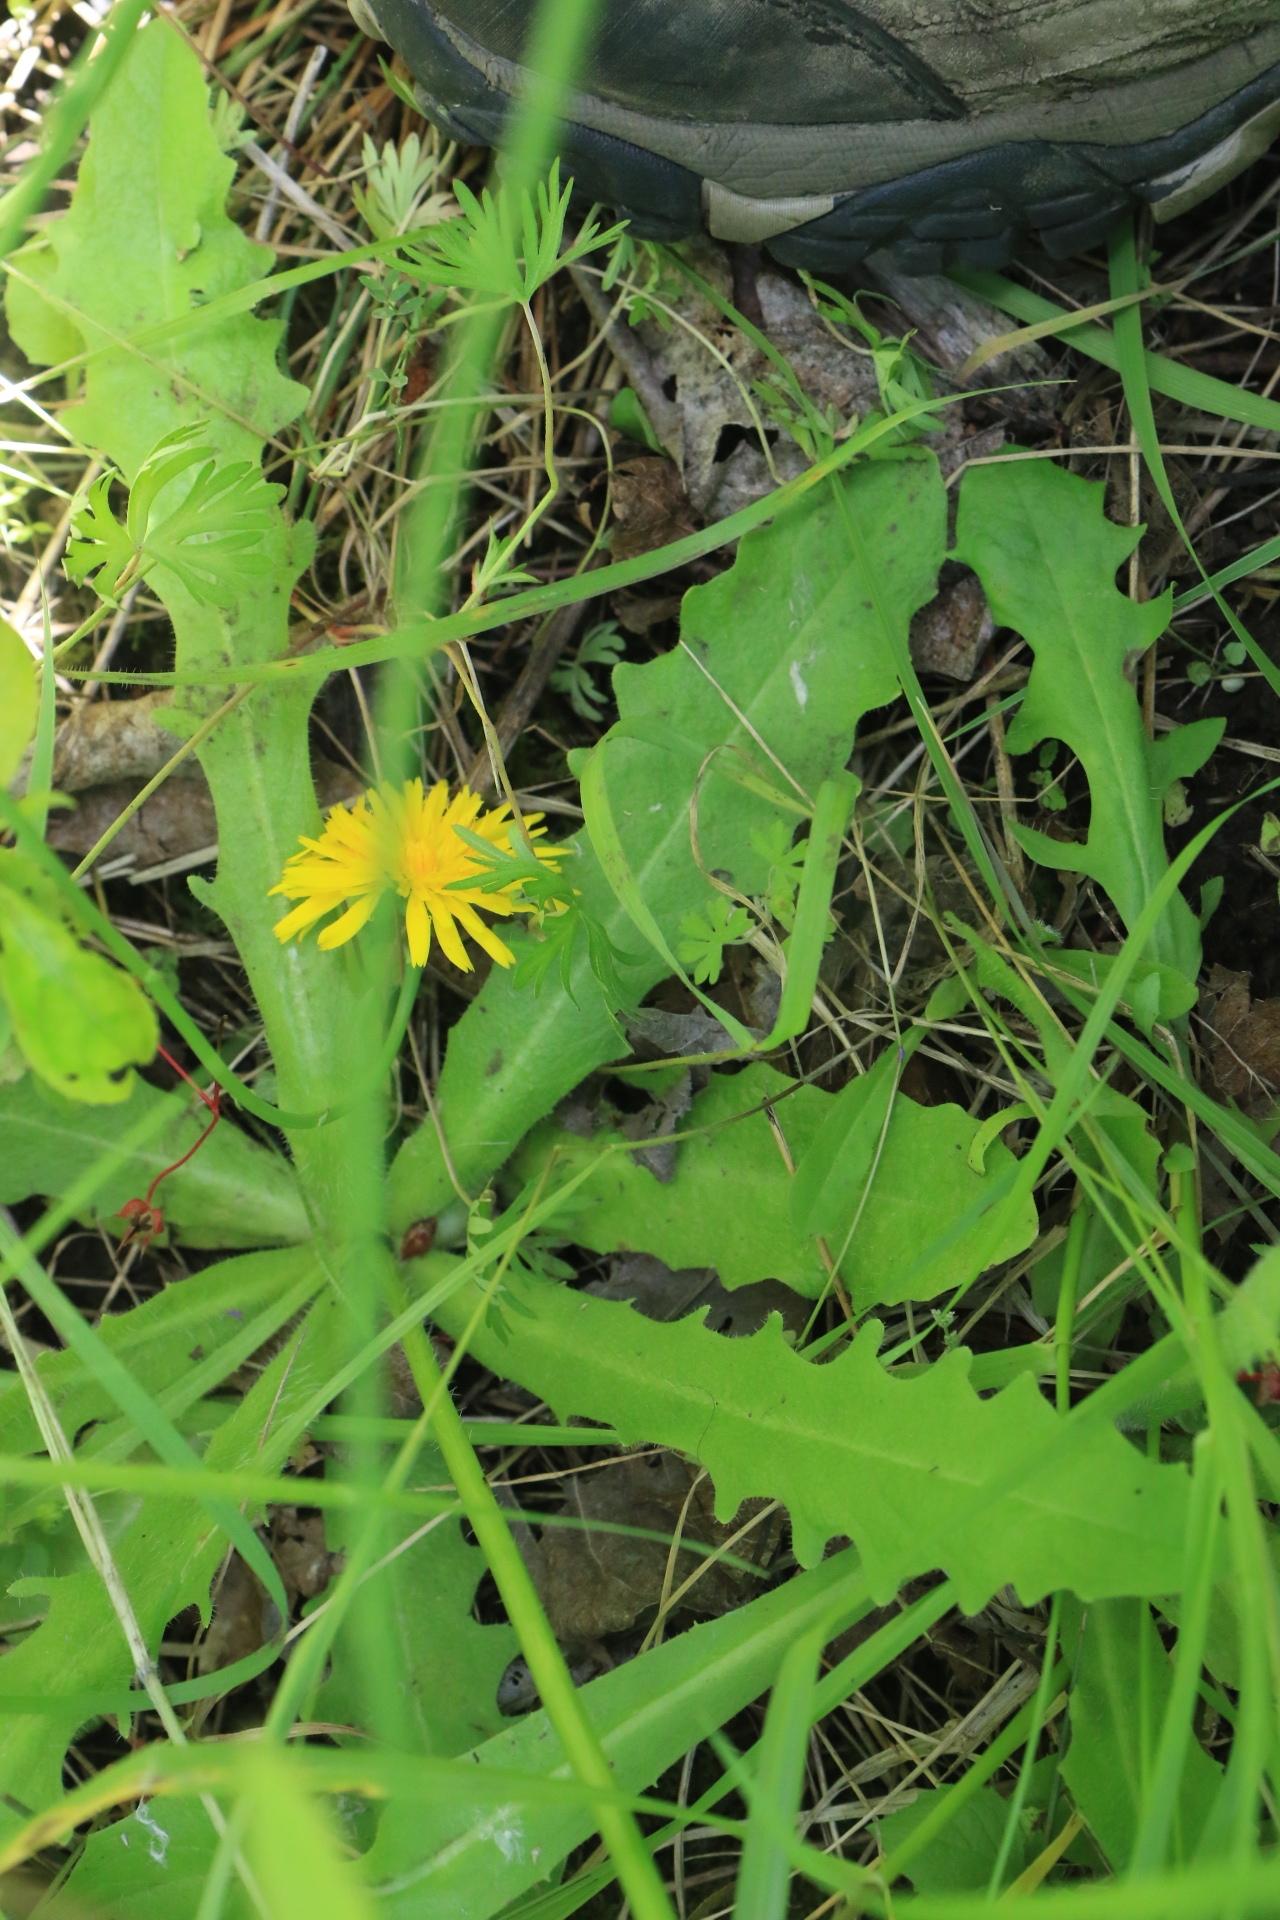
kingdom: Plantae
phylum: Tracheophyta
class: Magnoliopsida
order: Asterales
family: Asteraceae
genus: Hypochaeris
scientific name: Hypochaeris radicata
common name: Flatweed
